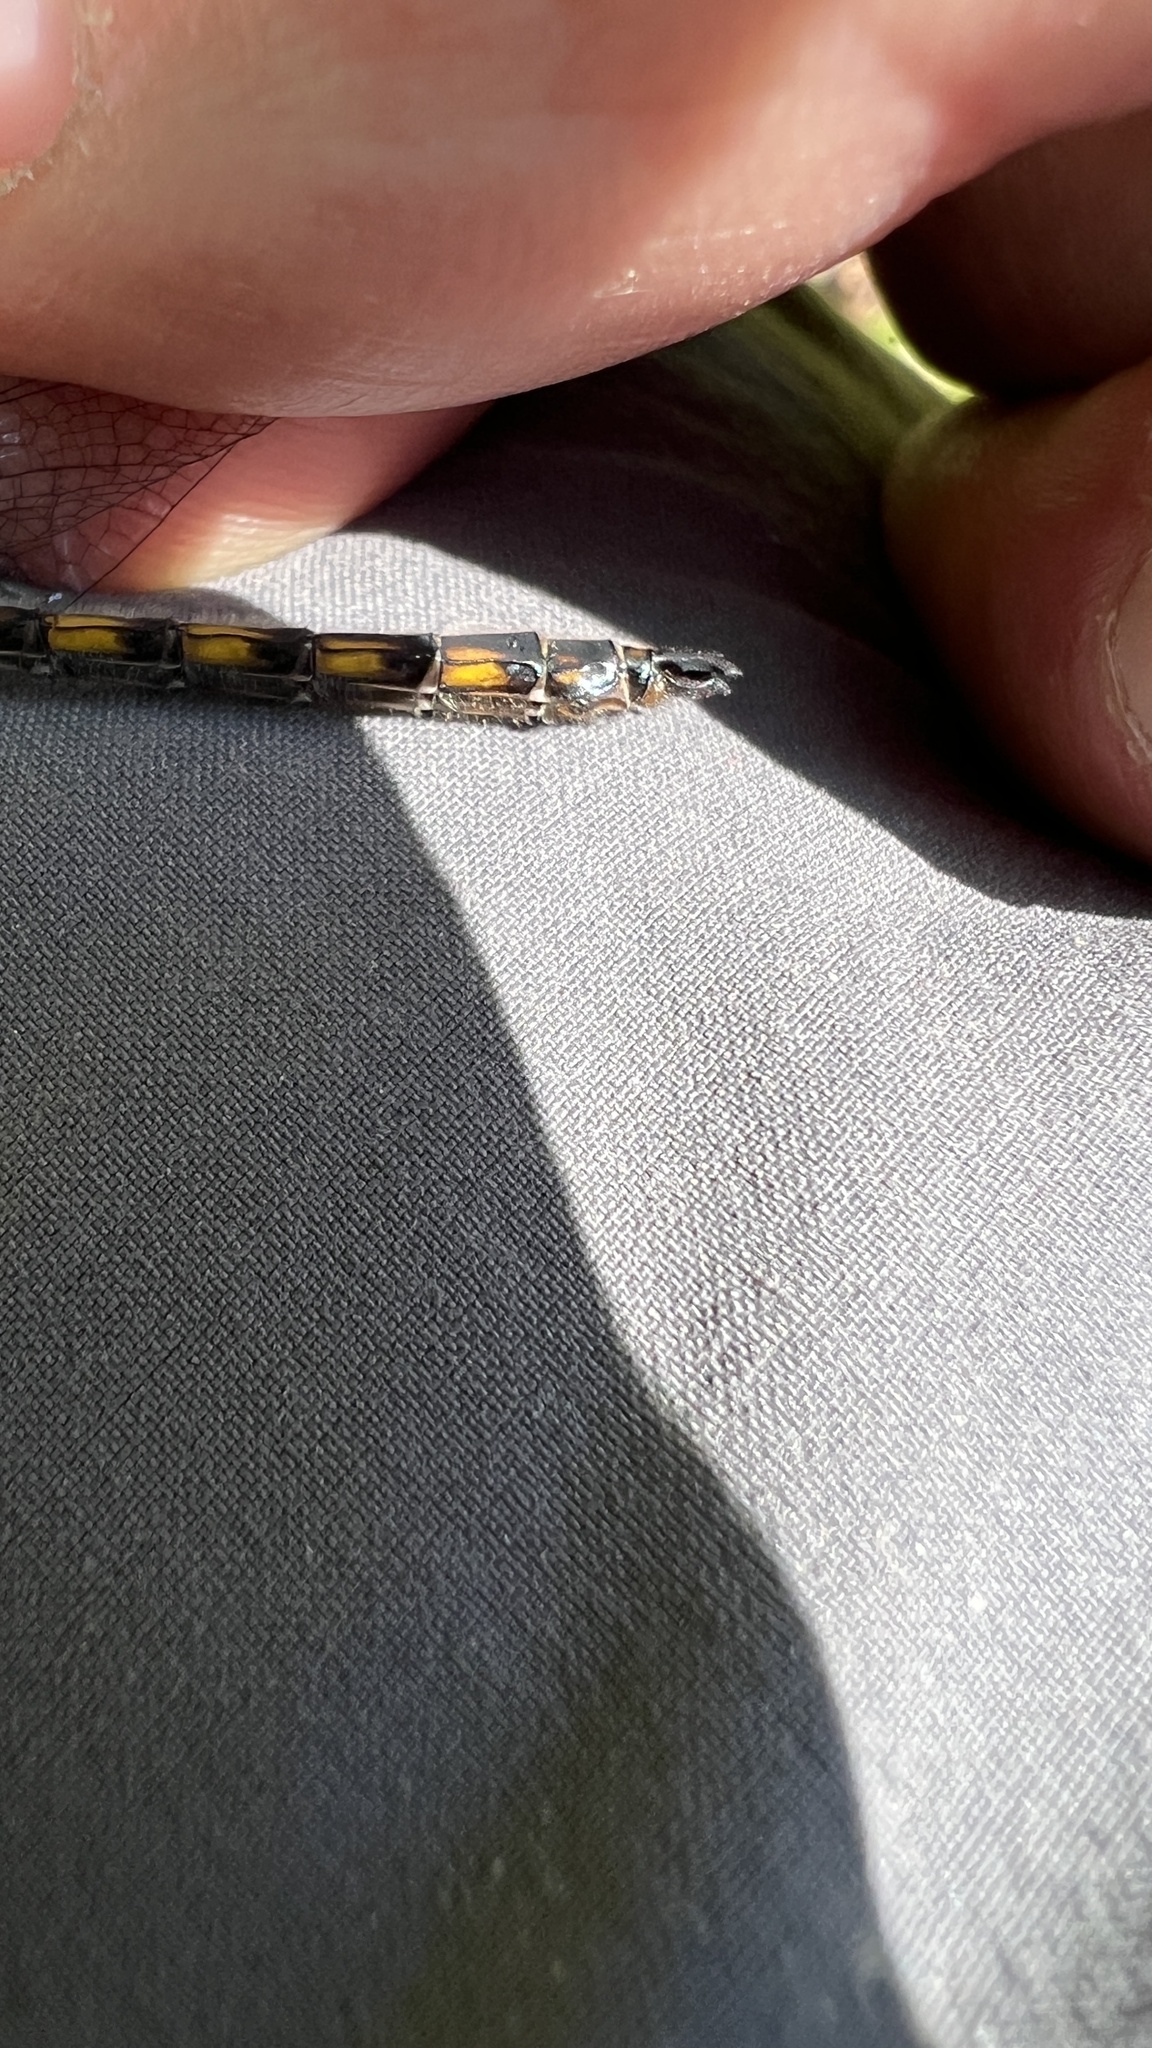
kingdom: Animalia
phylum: Arthropoda
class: Insecta
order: Odonata
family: Corduliidae
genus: Epitheca
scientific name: Epitheca canis
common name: Beaverpond baskettail
